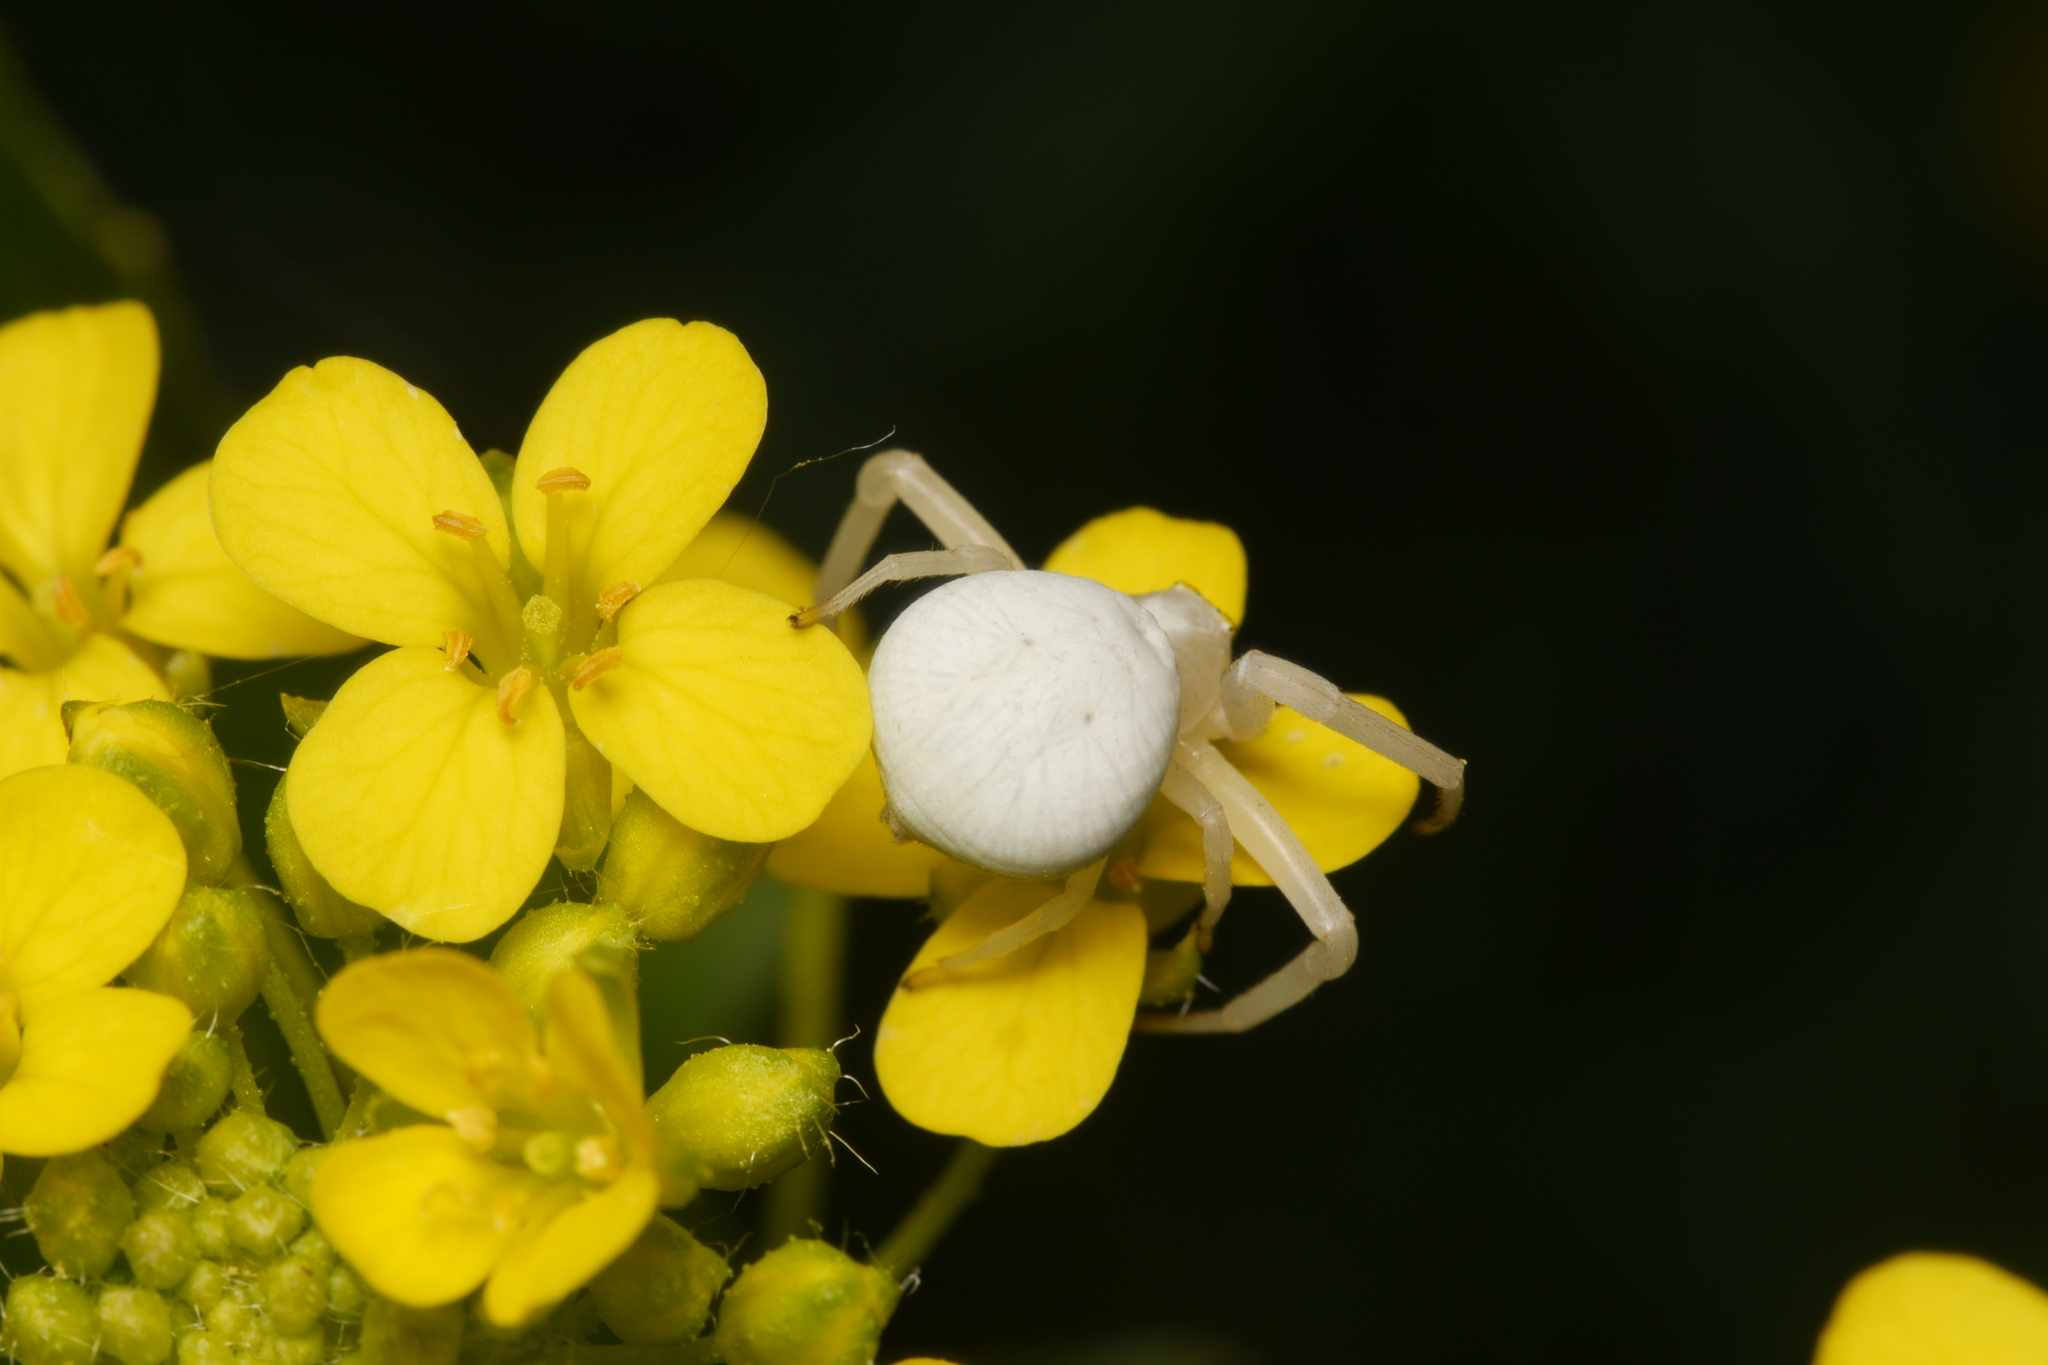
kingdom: Animalia
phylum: Arthropoda
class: Arachnida
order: Araneae
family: Thomisidae
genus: Misumena
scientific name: Misumena vatia
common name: Goldenrod crab spider
